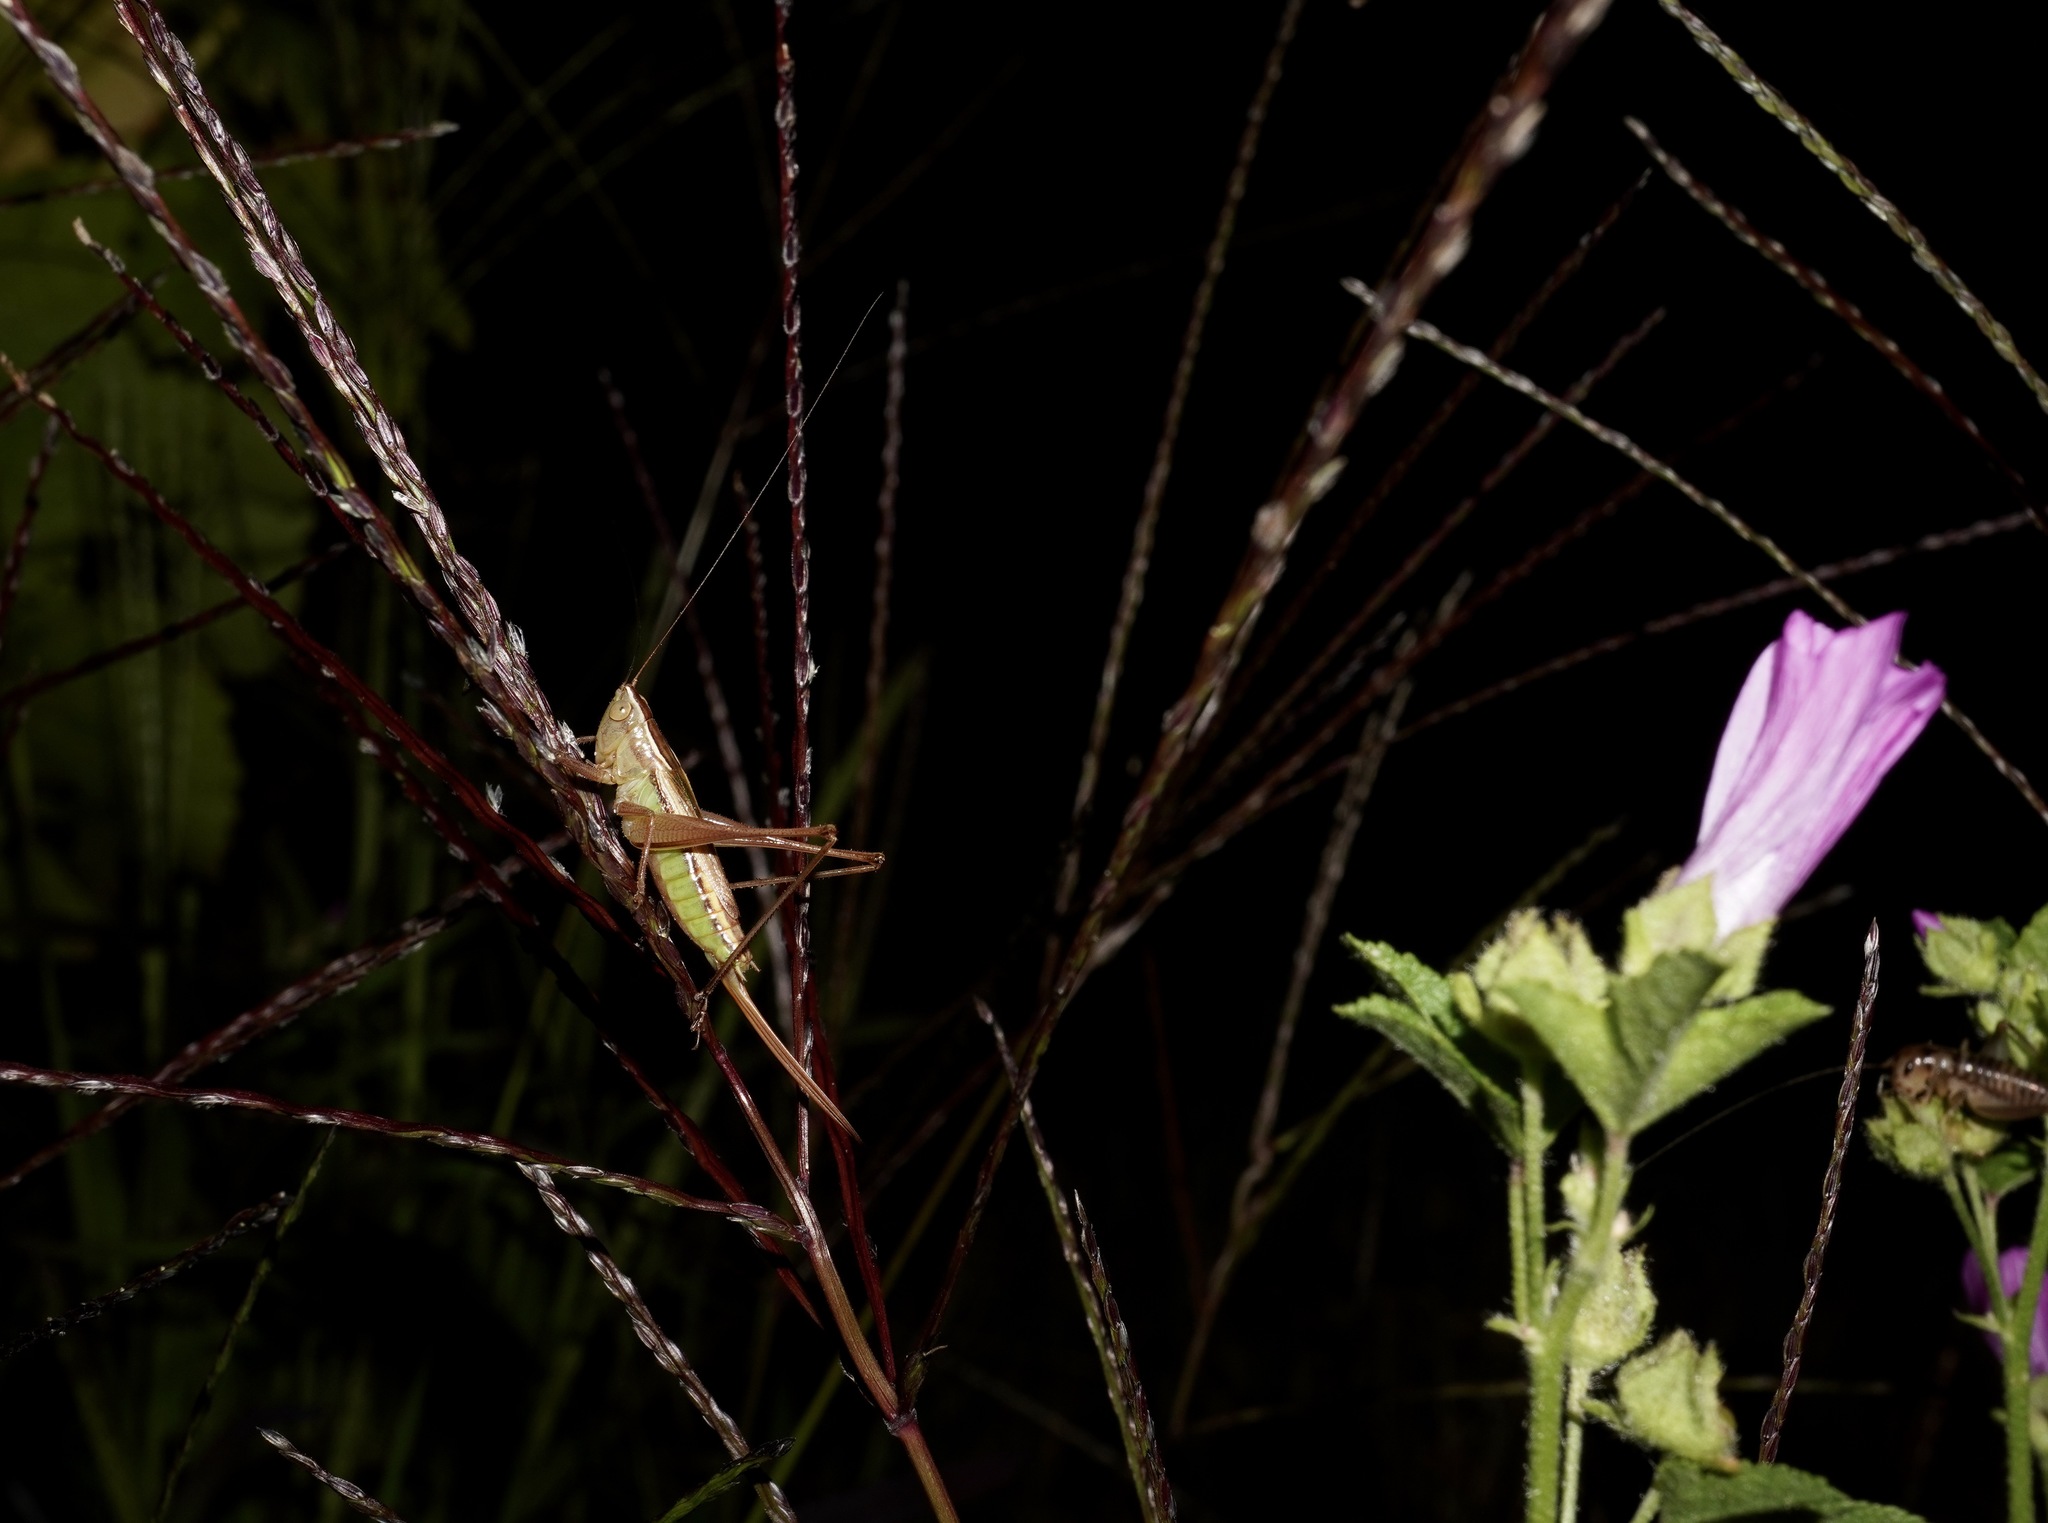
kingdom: Animalia
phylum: Arthropoda
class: Insecta
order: Orthoptera
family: Tettigoniidae
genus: Conocephalus
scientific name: Conocephalus albescens
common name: Whitish meadow katydid
